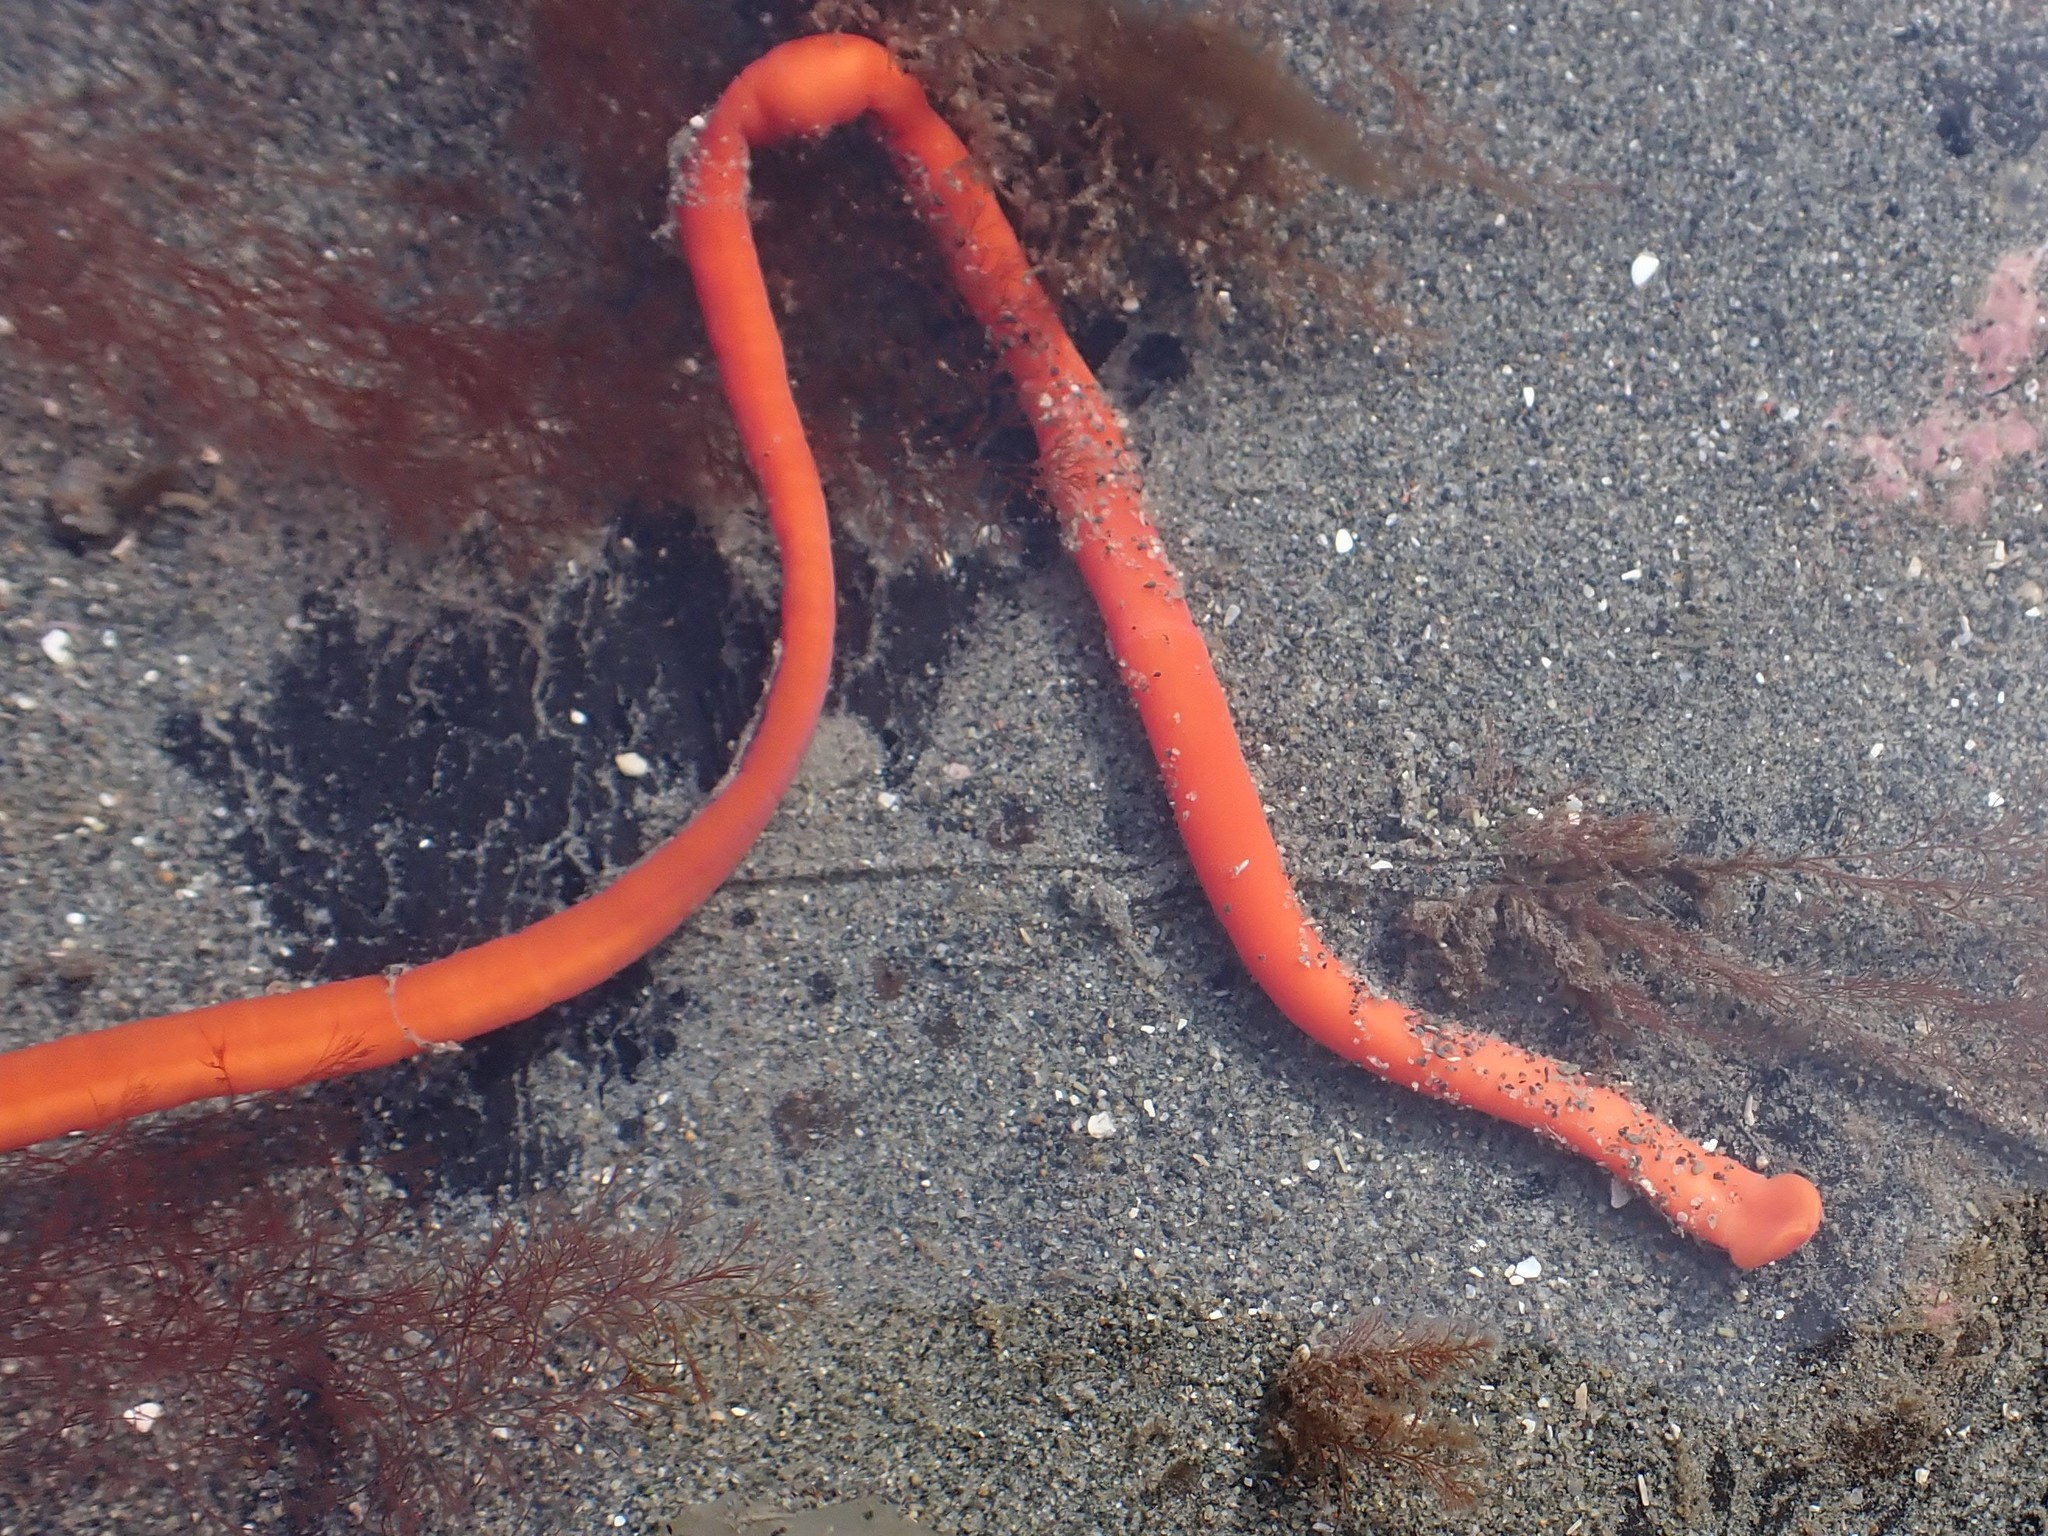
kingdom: Animalia
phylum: Nemertea
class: Palaeonemertea
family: Tubulanidae
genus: Tubulanus
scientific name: Tubulanus polymorphus
